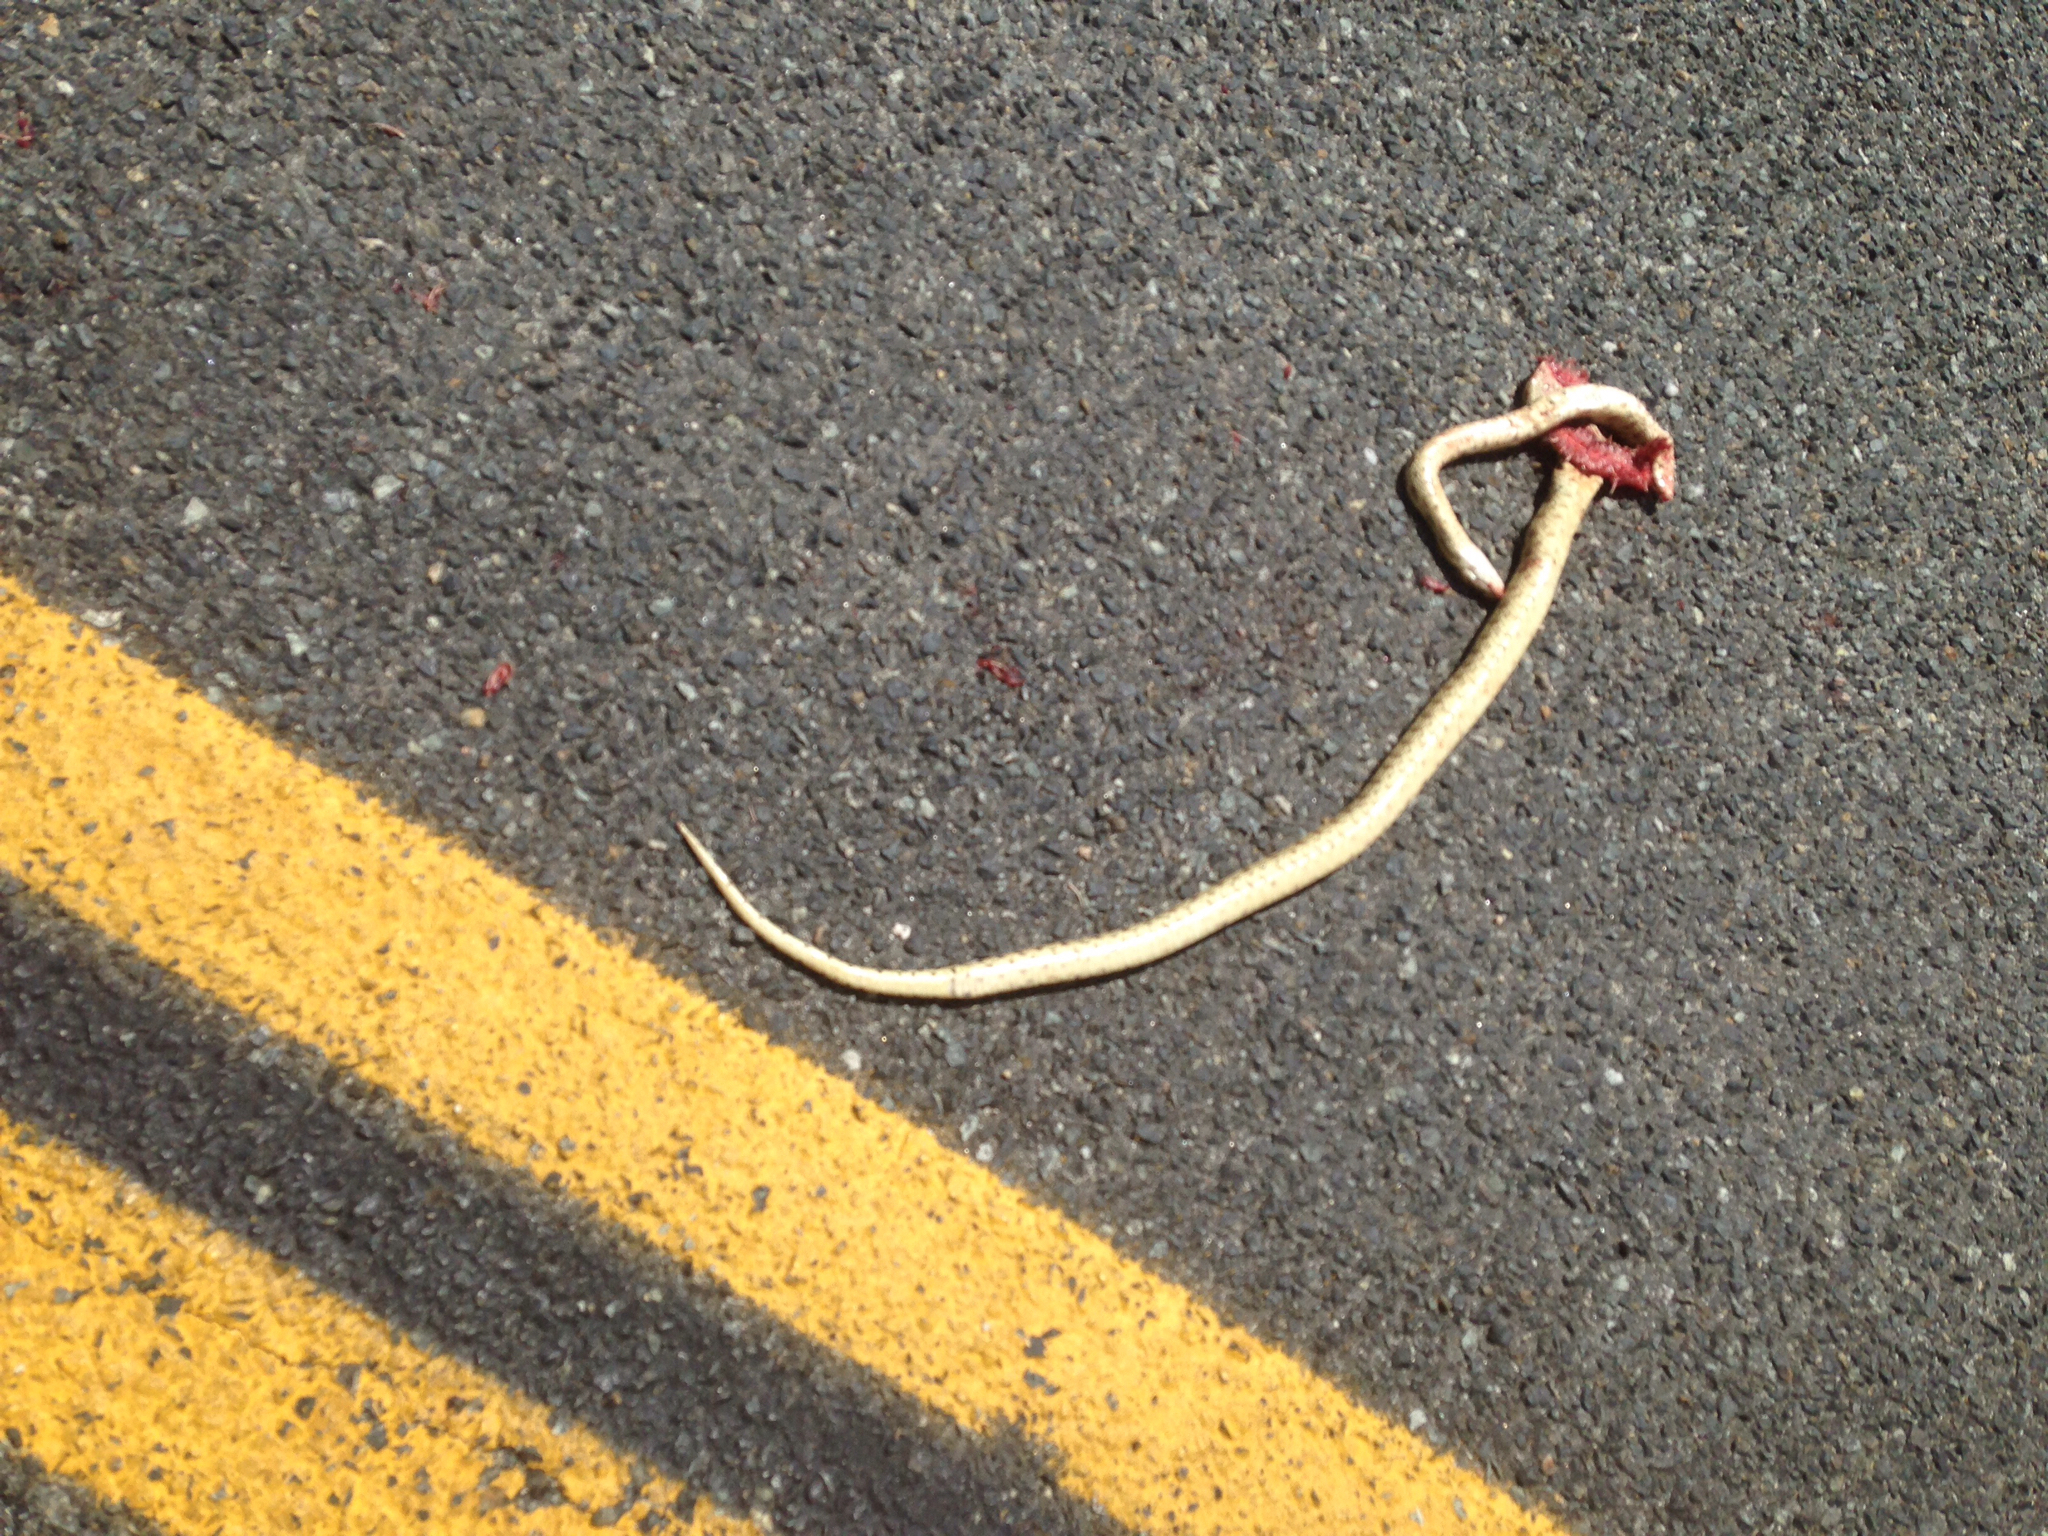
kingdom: Animalia
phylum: Chordata
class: Squamata
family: Colubridae
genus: Pituophis
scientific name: Pituophis catenifer
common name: Gopher snake
